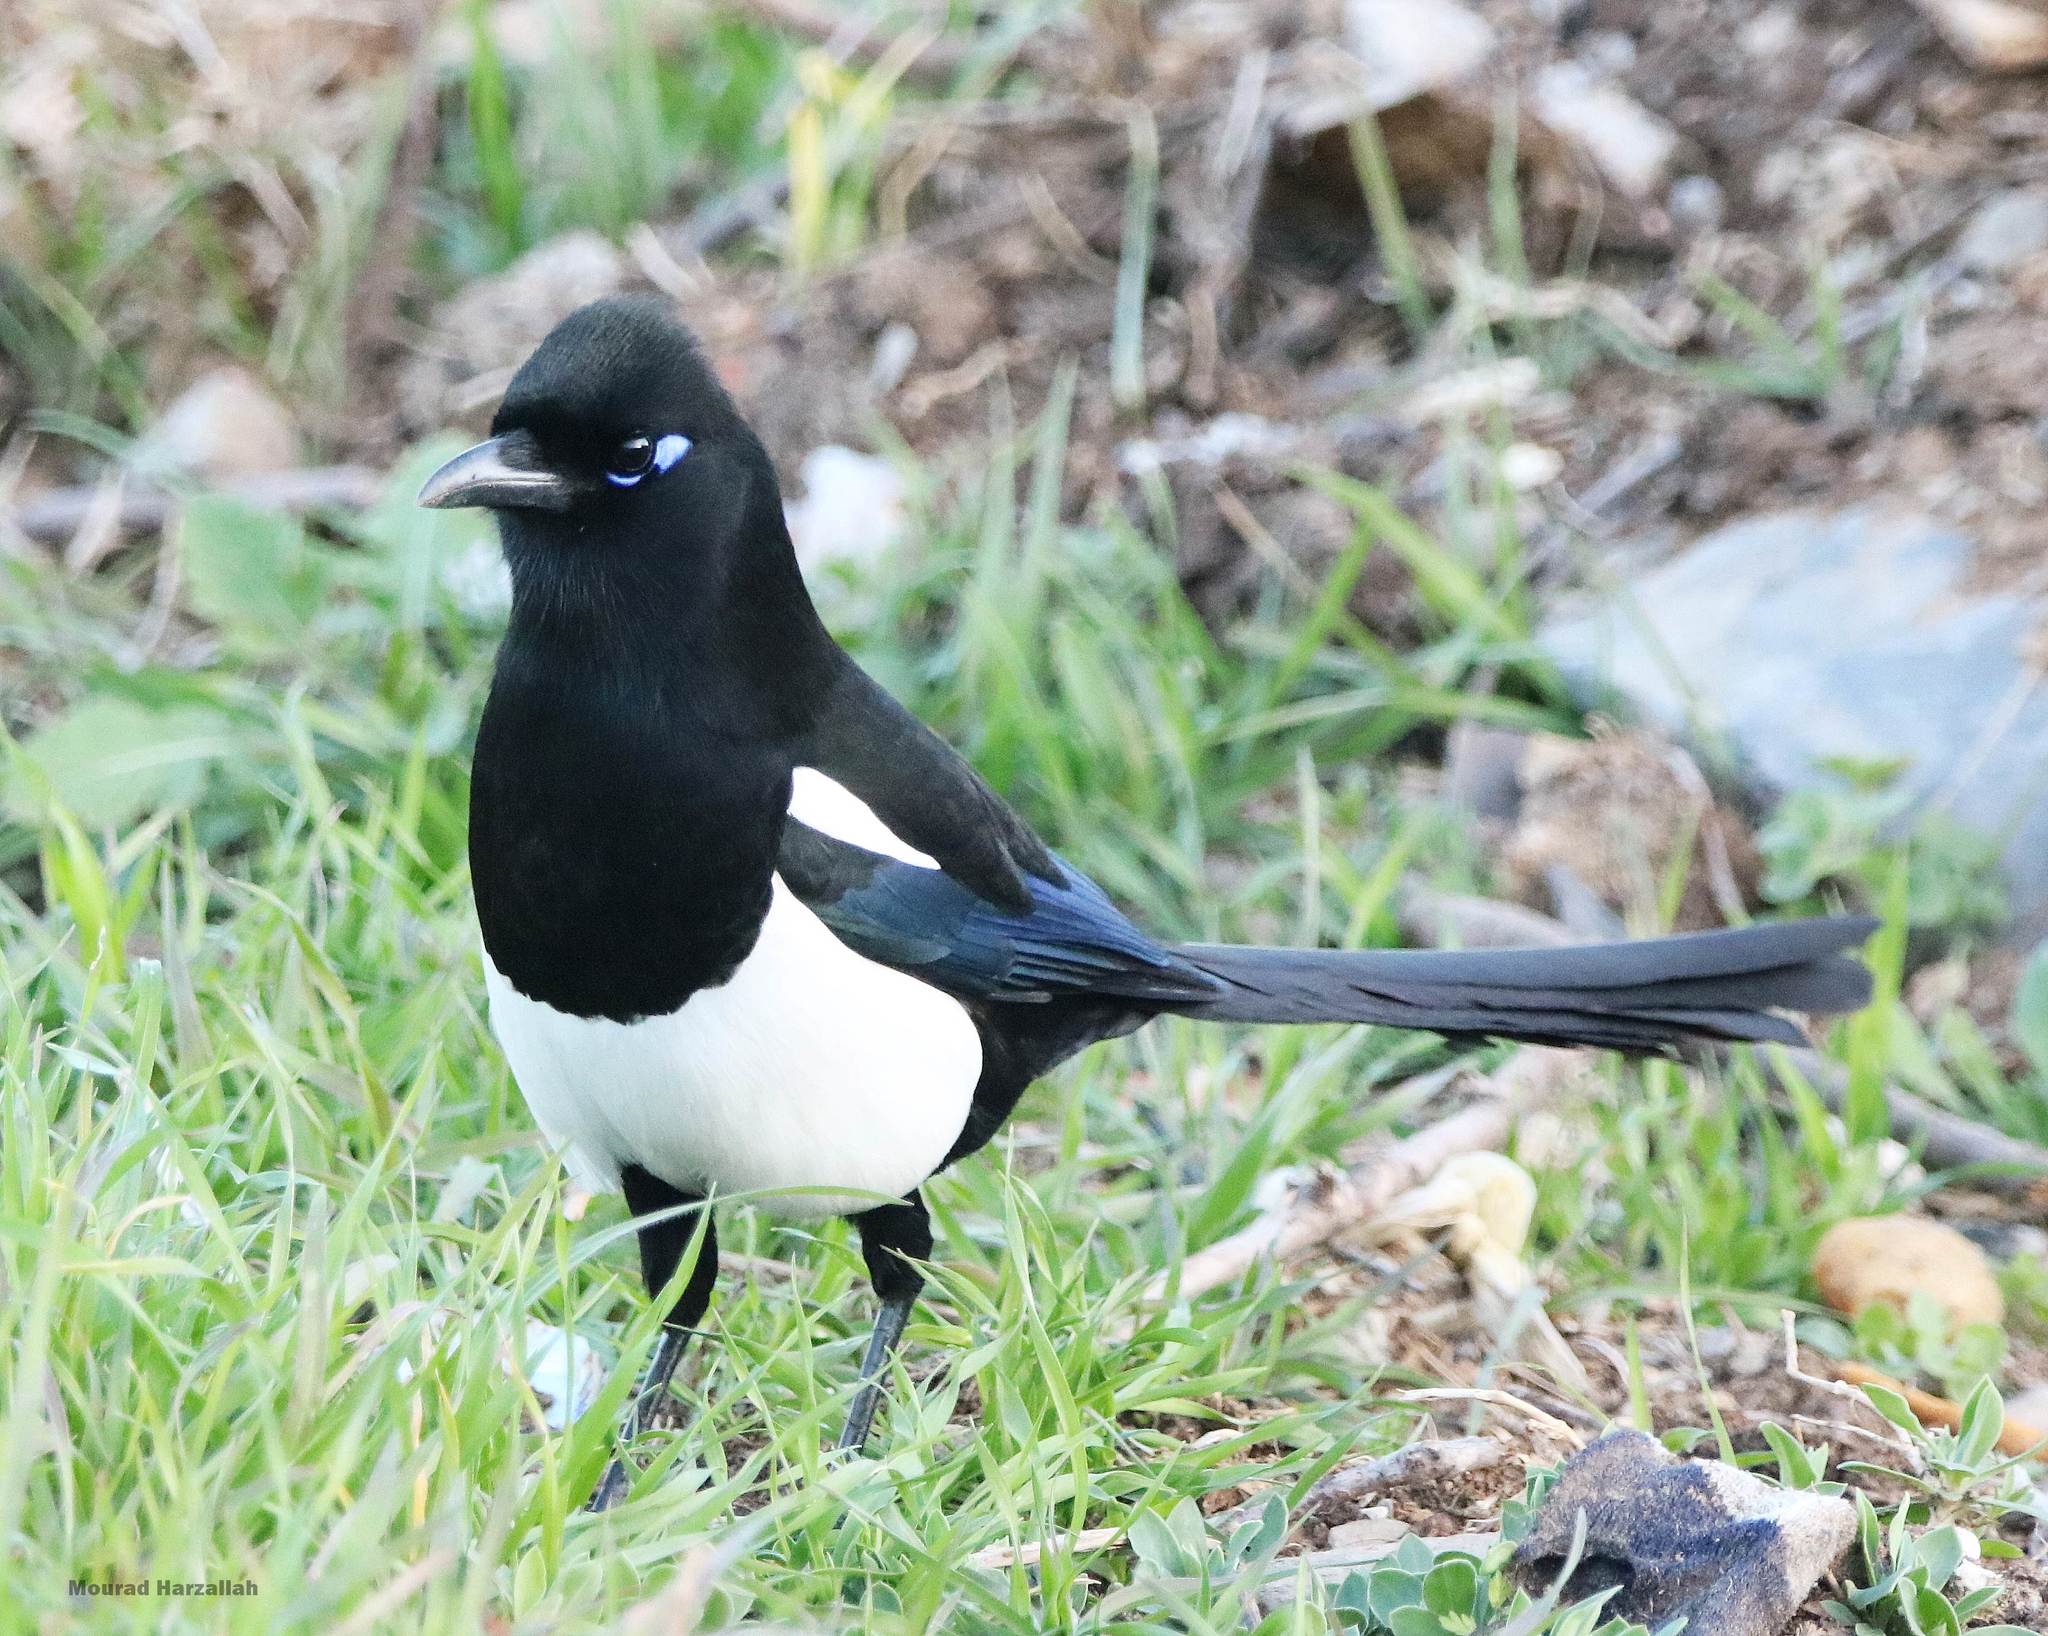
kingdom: Animalia
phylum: Chordata
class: Aves
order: Passeriformes
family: Corvidae
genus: Pica
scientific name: Pica mauritanica
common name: Maghreb magpie
